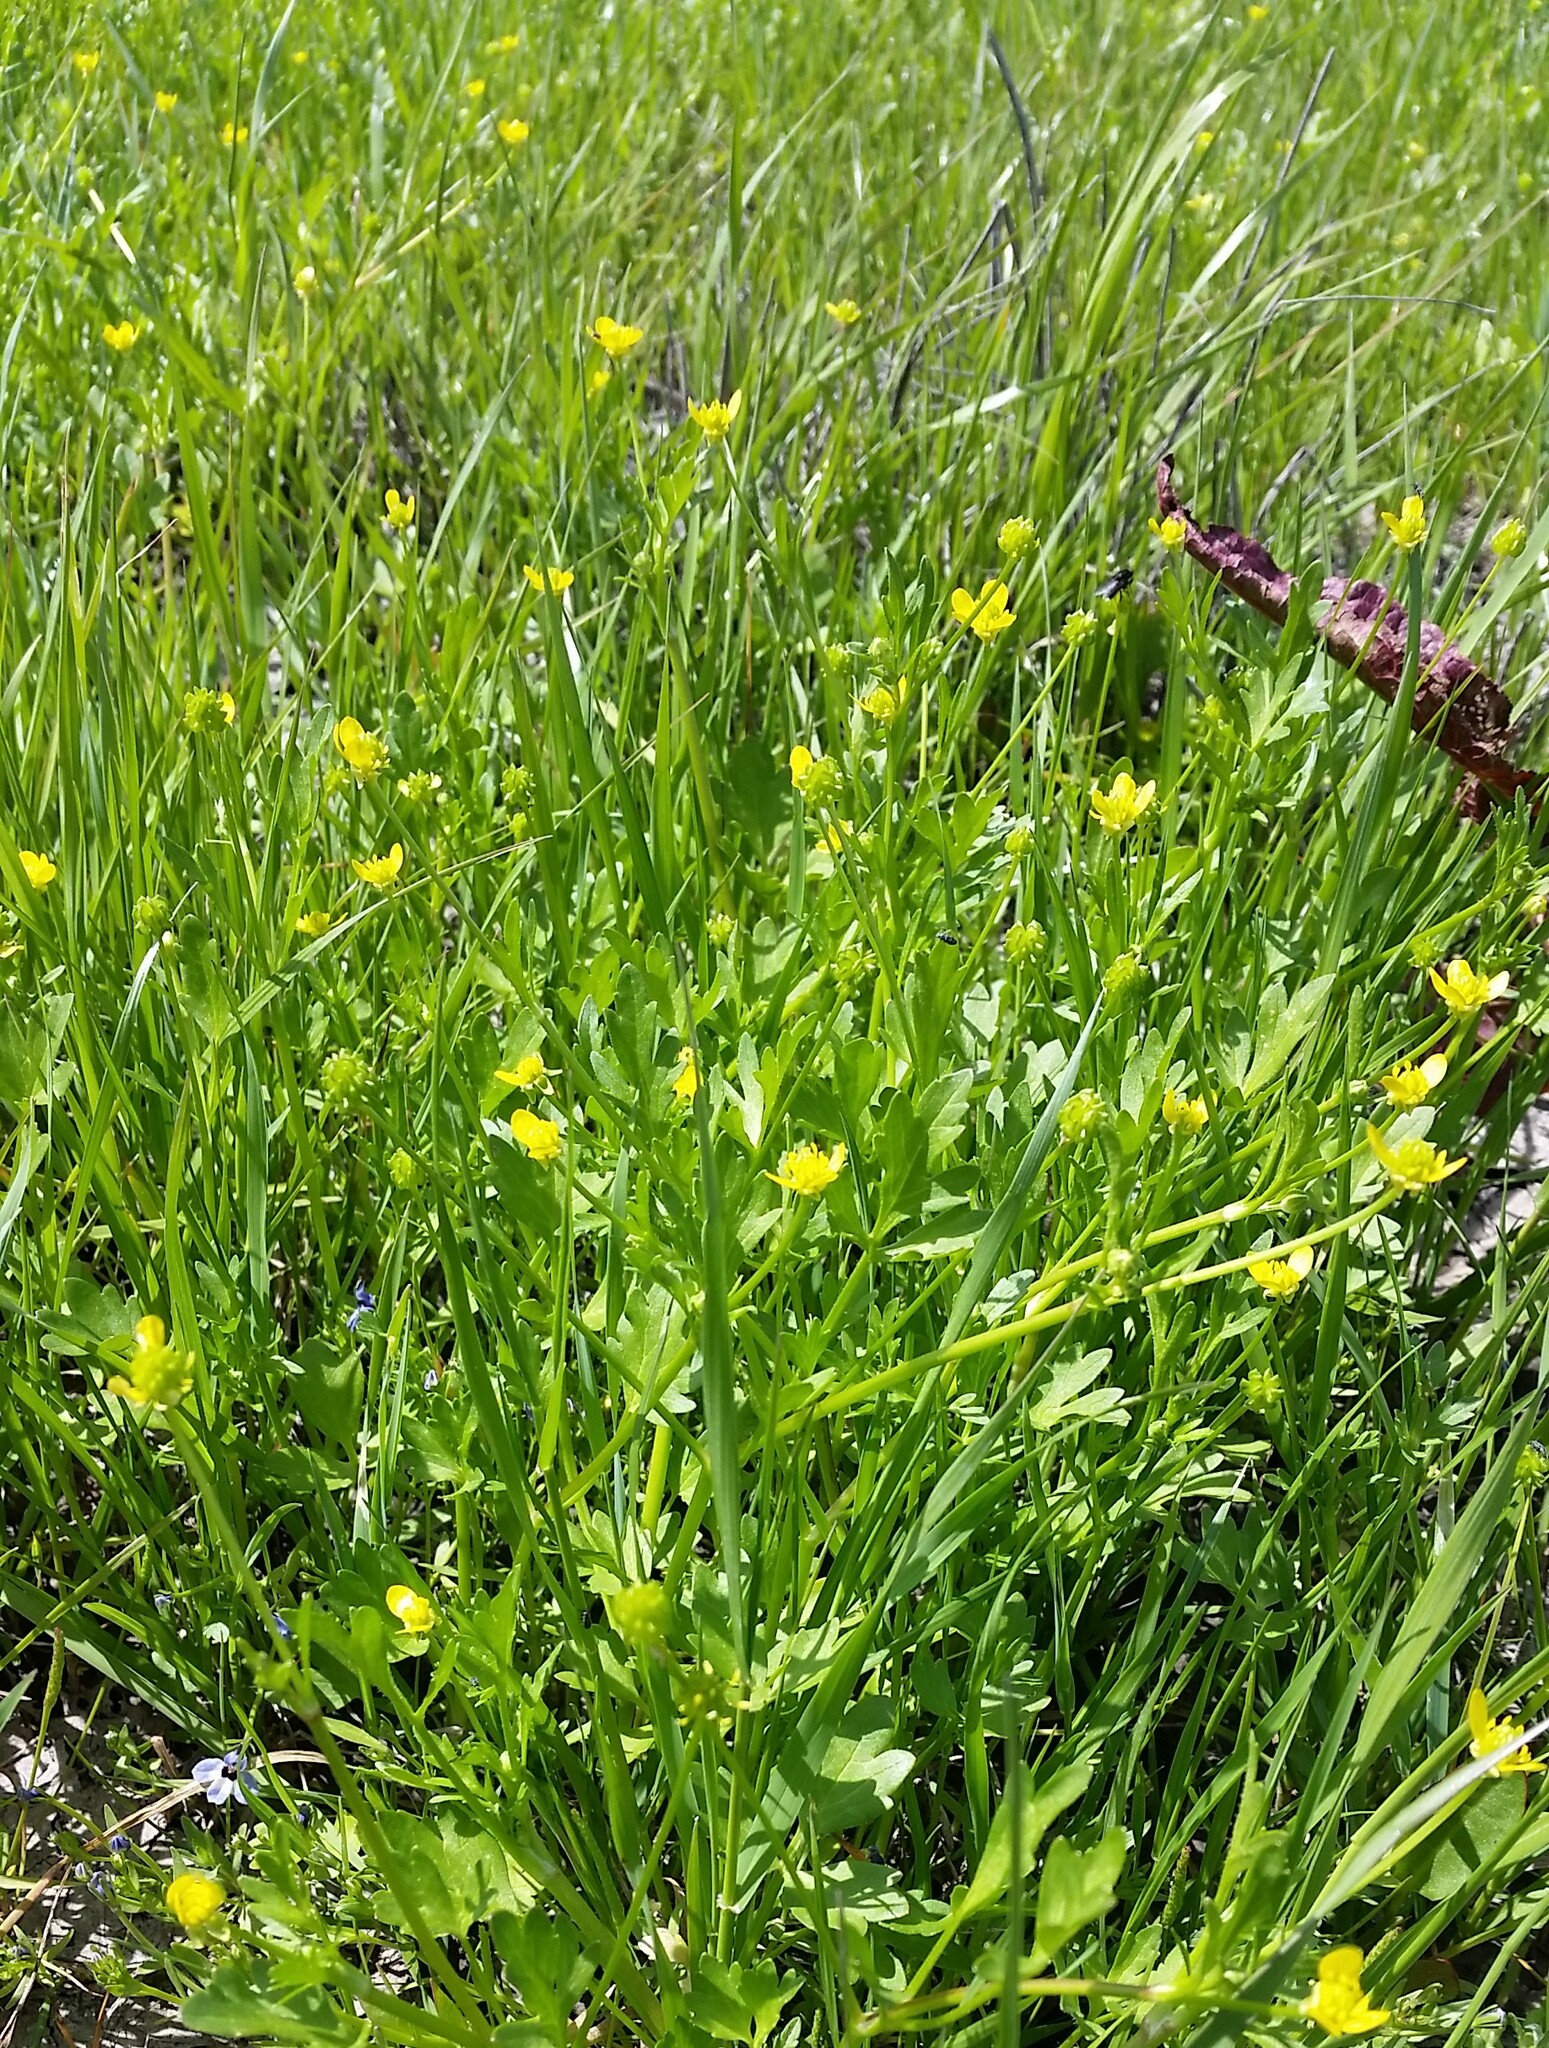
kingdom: Plantae
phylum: Tracheophyta
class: Magnoliopsida
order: Ranunculales
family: Ranunculaceae
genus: Ranunculus
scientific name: Ranunculus muricatus
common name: Rough-fruited buttercup
